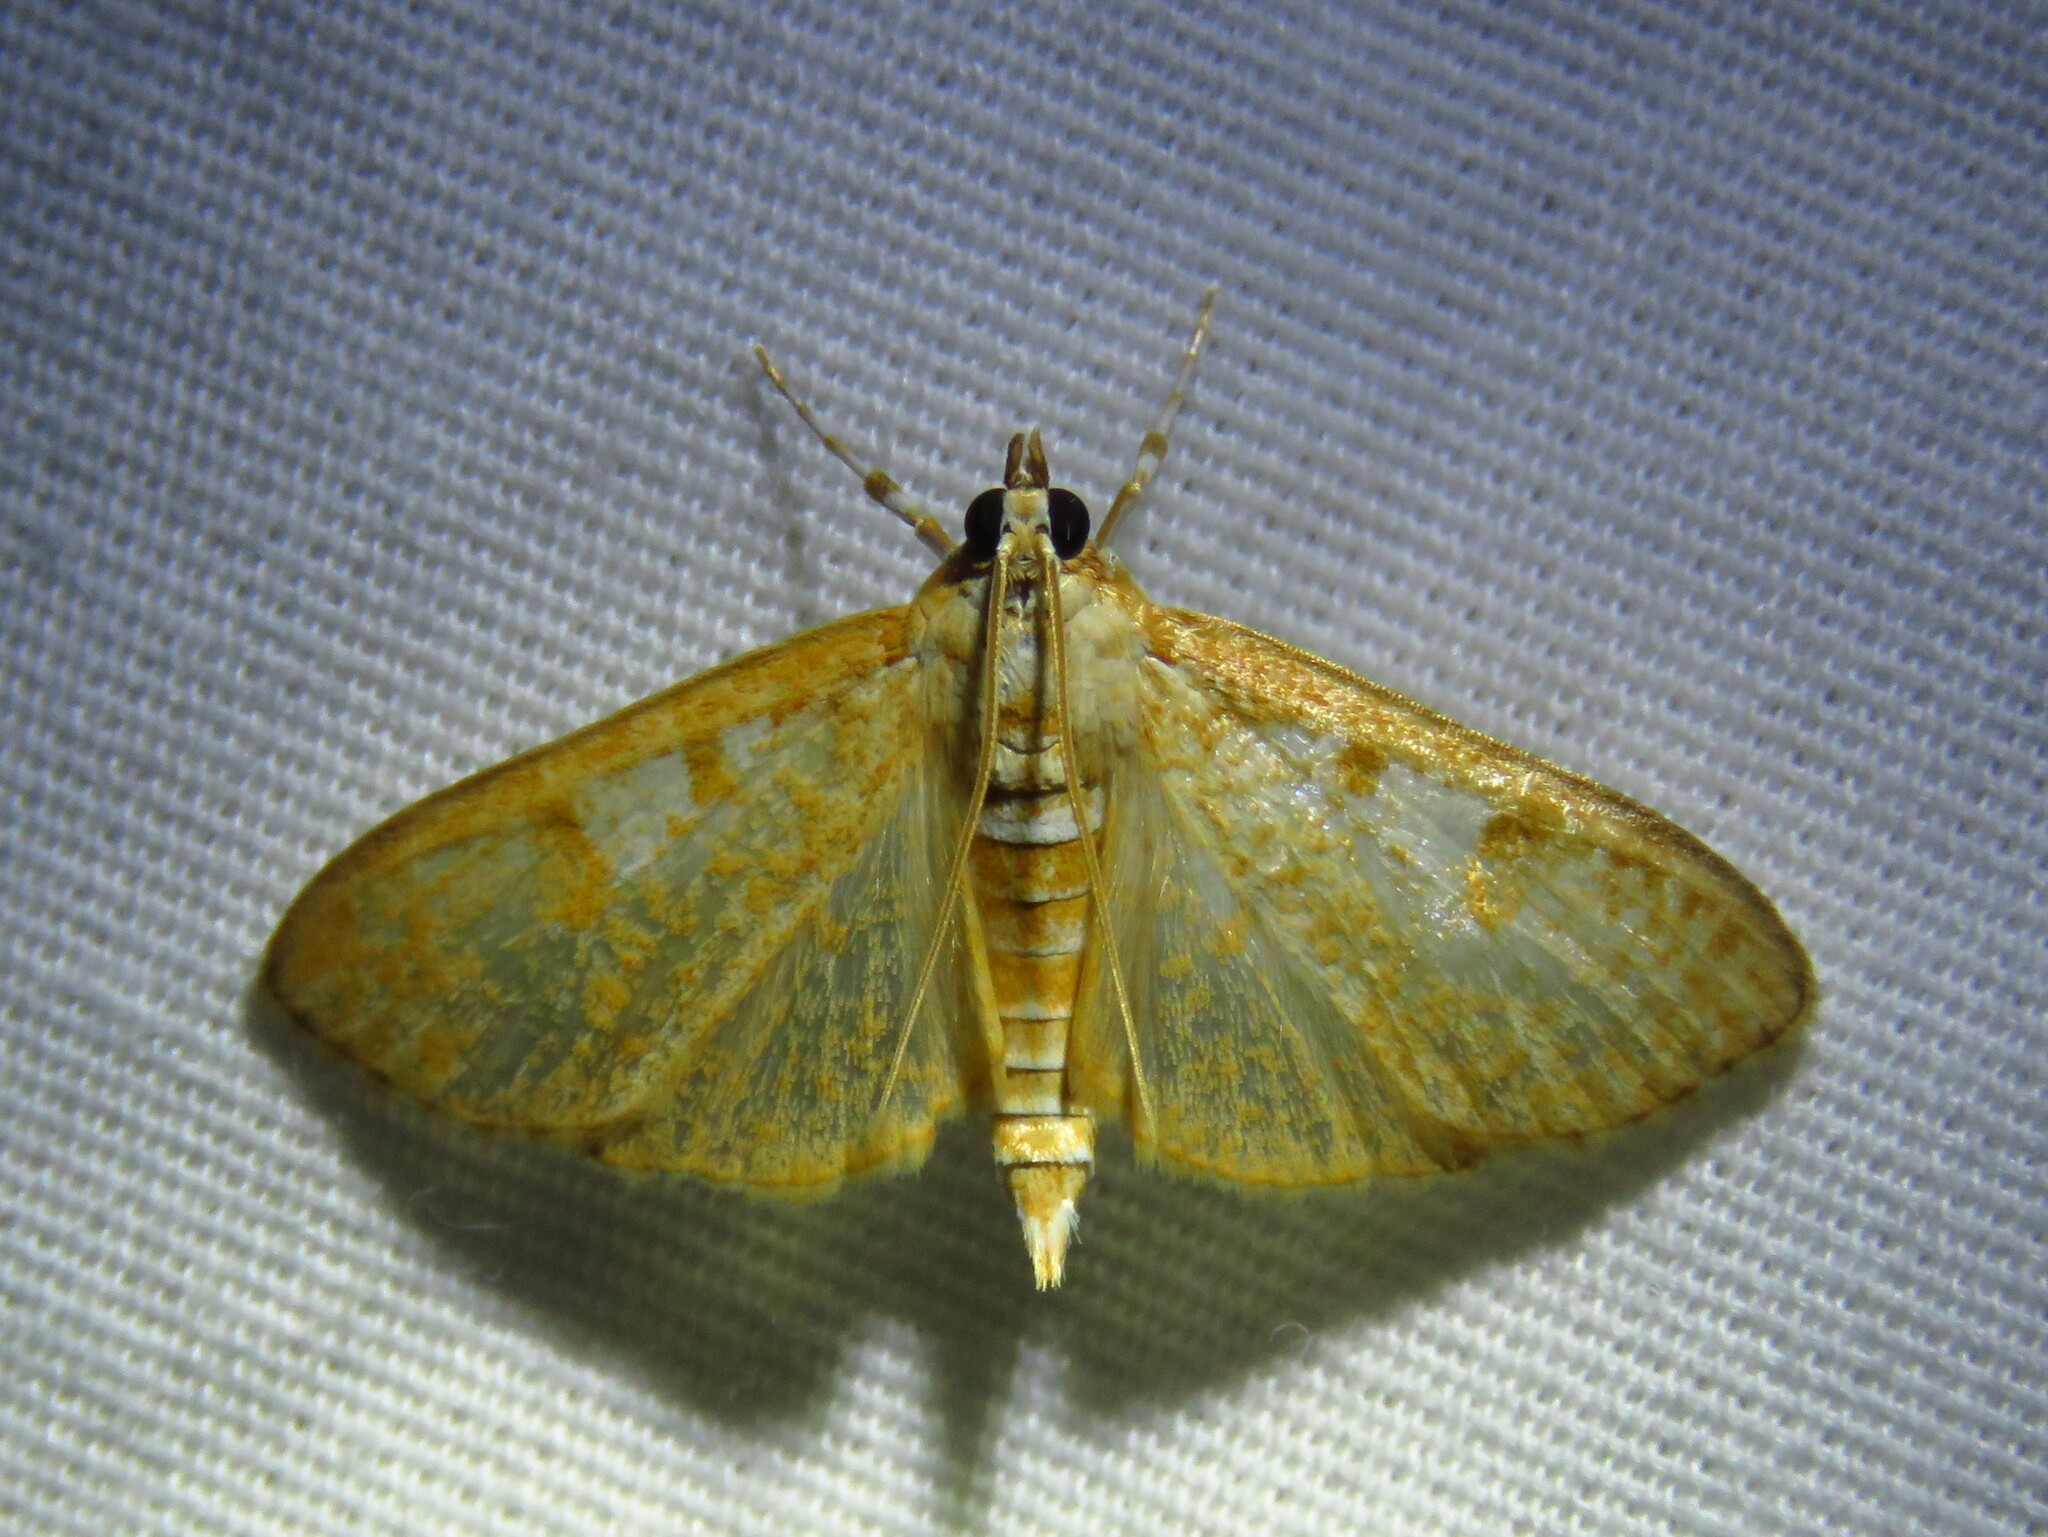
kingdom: Animalia
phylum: Arthropoda
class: Insecta
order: Lepidoptera
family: Crambidae
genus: Palpita
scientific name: Palpita freemanalis
